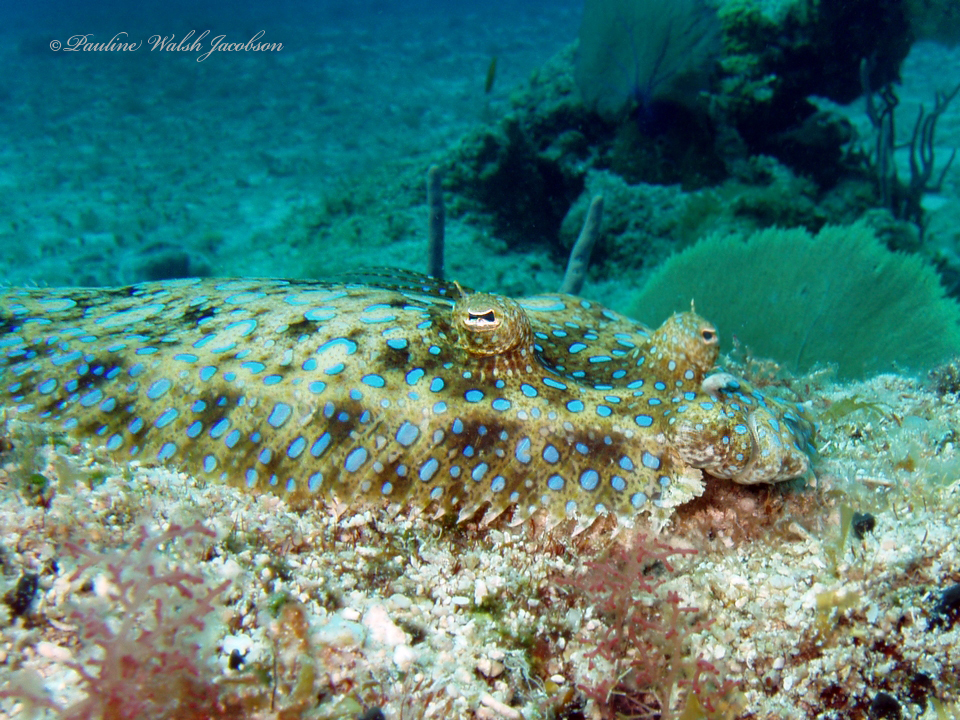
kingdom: Animalia
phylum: Chordata
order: Pleuronectiformes
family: Bothidae
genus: Bothus
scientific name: Bothus lunatus
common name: Peacock flounder
